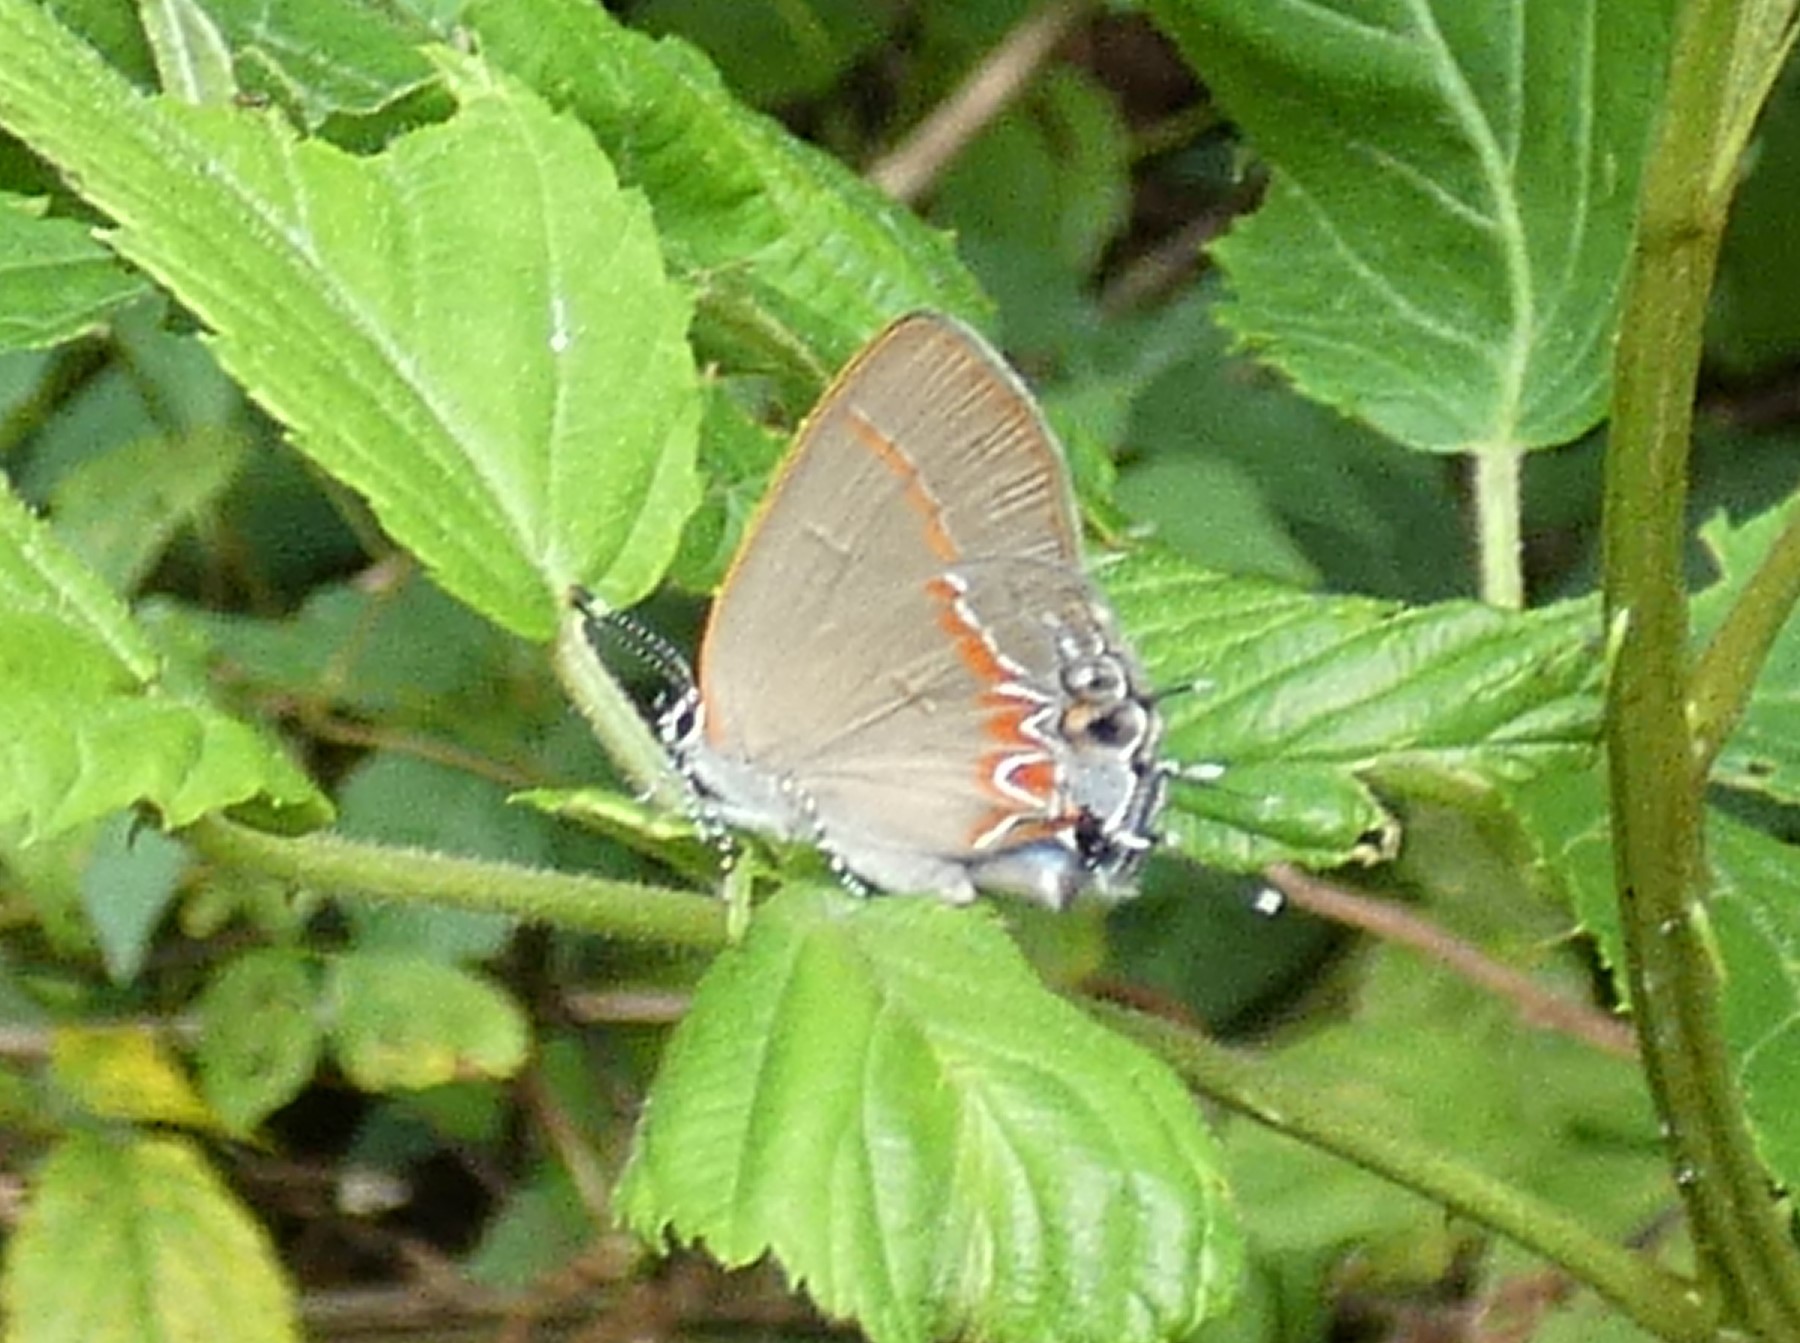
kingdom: Animalia
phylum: Arthropoda
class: Insecta
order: Lepidoptera
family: Lycaenidae
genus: Calycopis
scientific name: Calycopis cecrops
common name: Red-banded hairstreak
